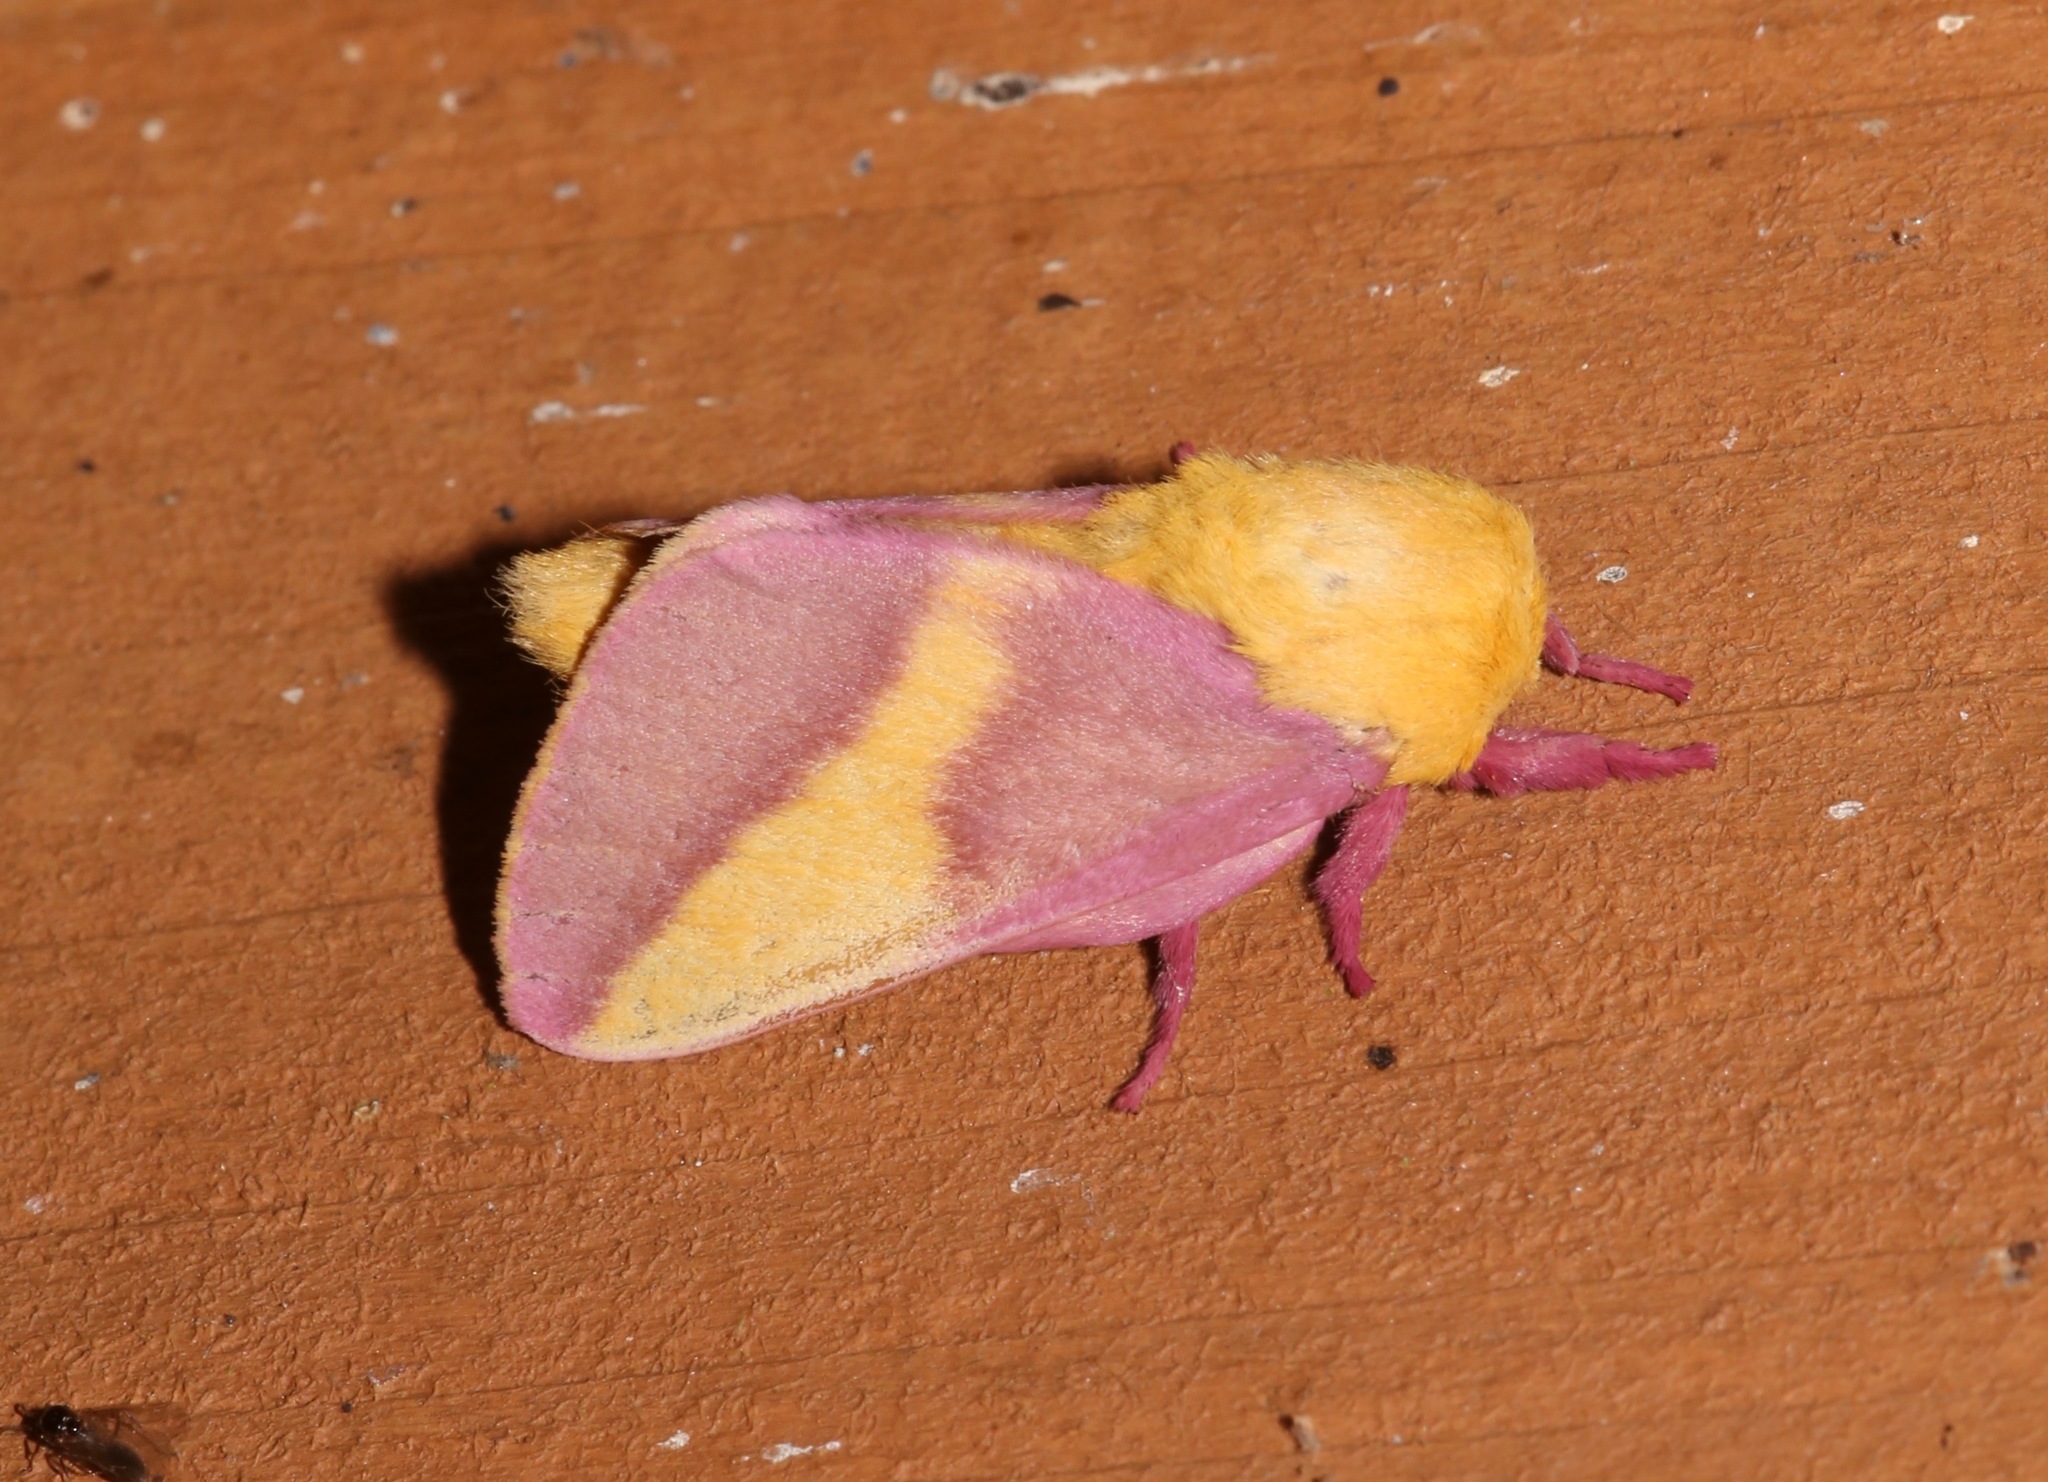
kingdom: Animalia
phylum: Arthropoda
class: Insecta
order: Lepidoptera
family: Saturniidae
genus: Dryocampa
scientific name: Dryocampa rubicunda
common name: Rosy maple moth
